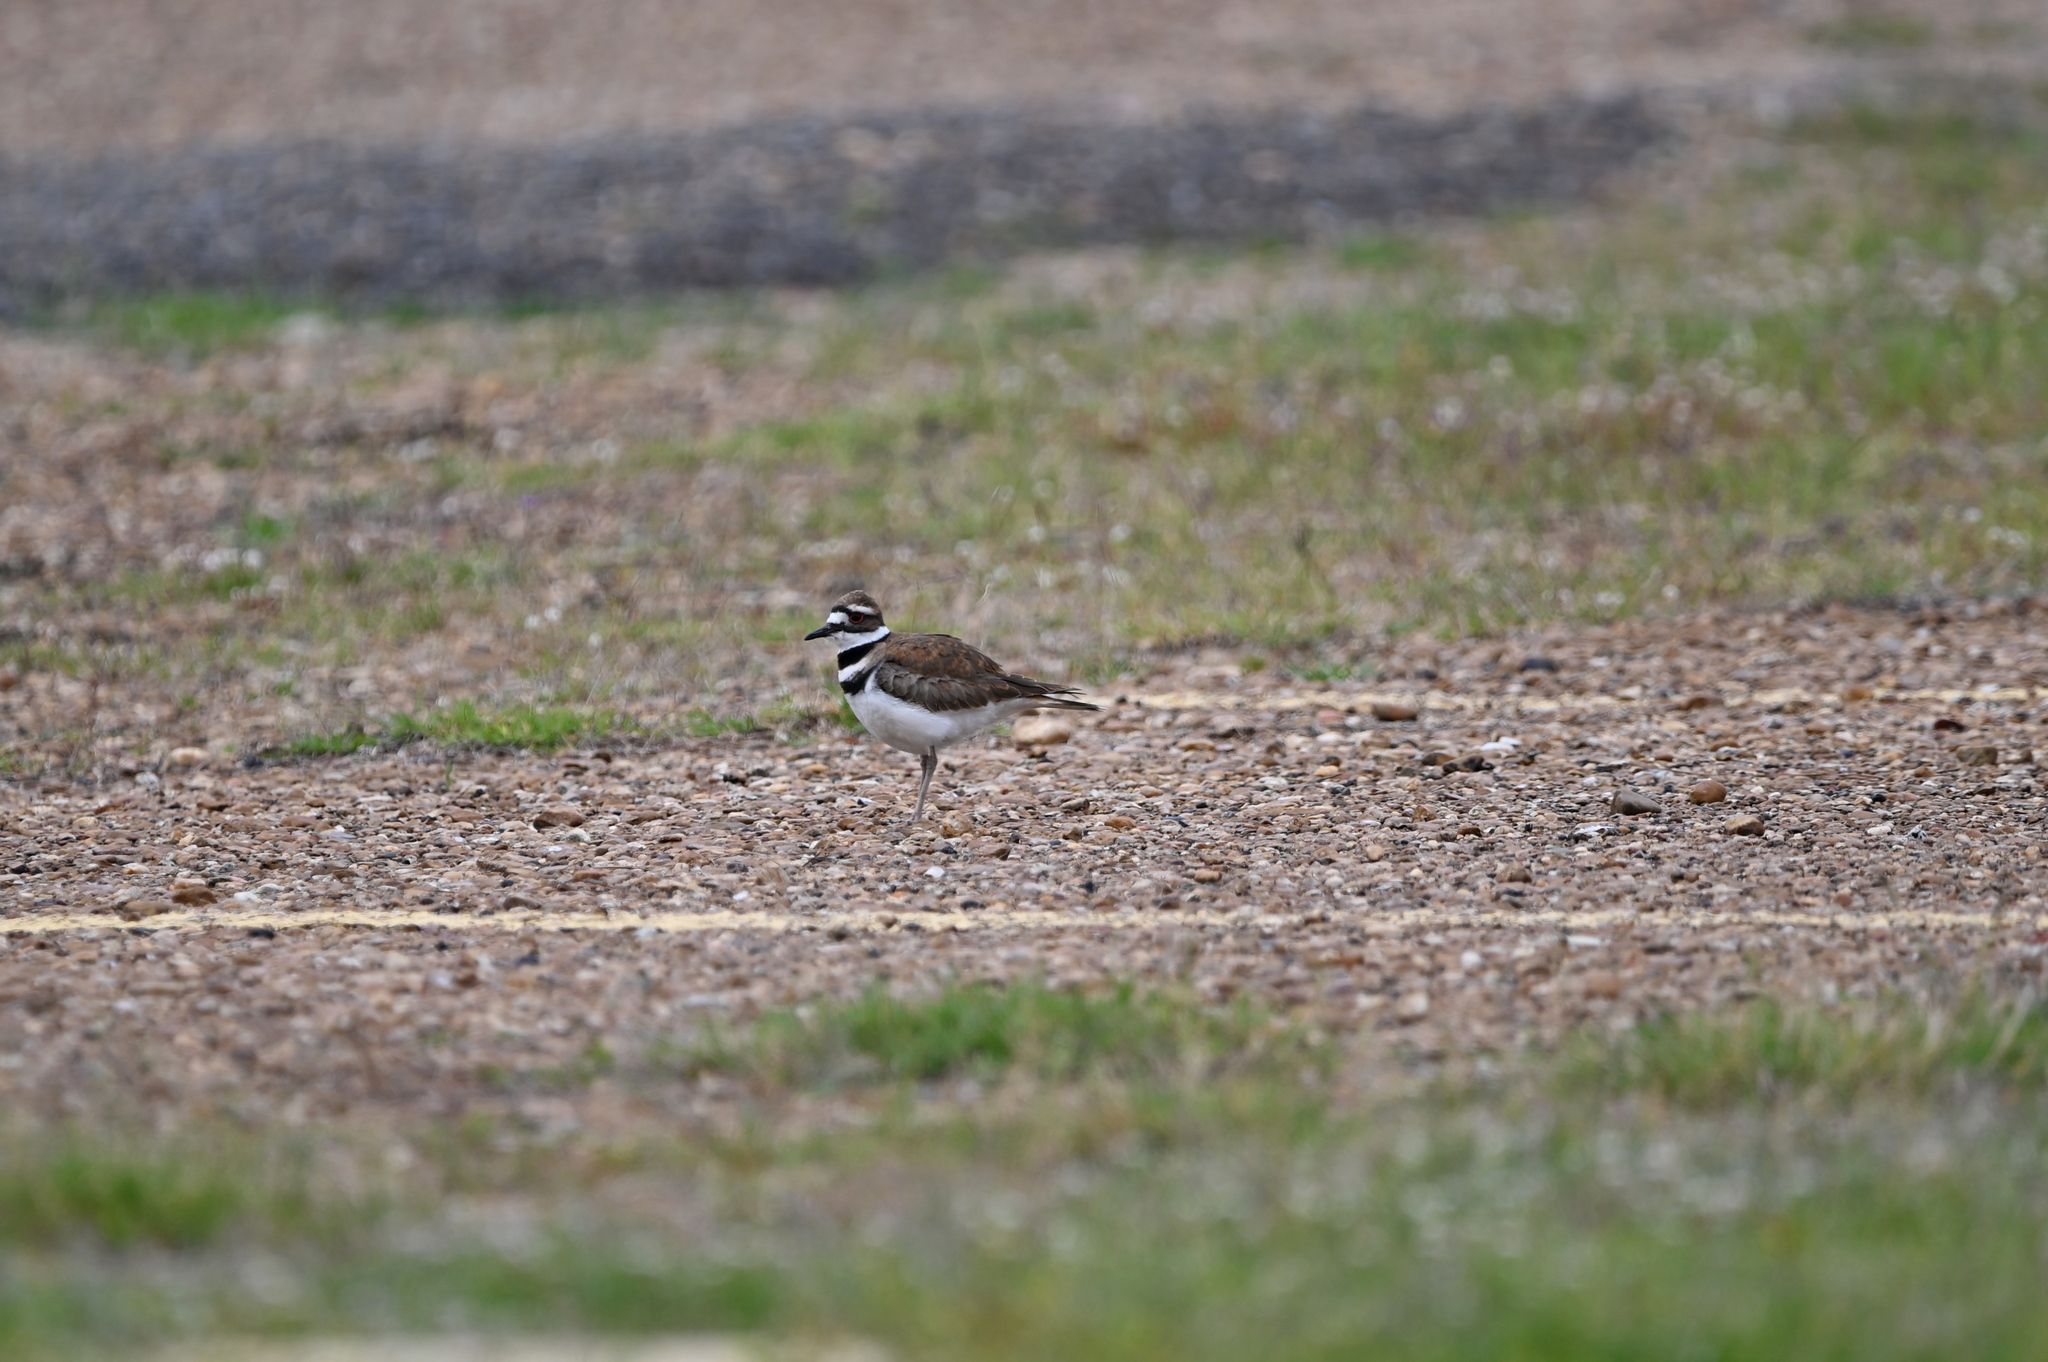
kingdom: Animalia
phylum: Chordata
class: Aves
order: Charadriiformes
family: Charadriidae
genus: Charadrius
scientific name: Charadrius vociferus
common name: Killdeer
